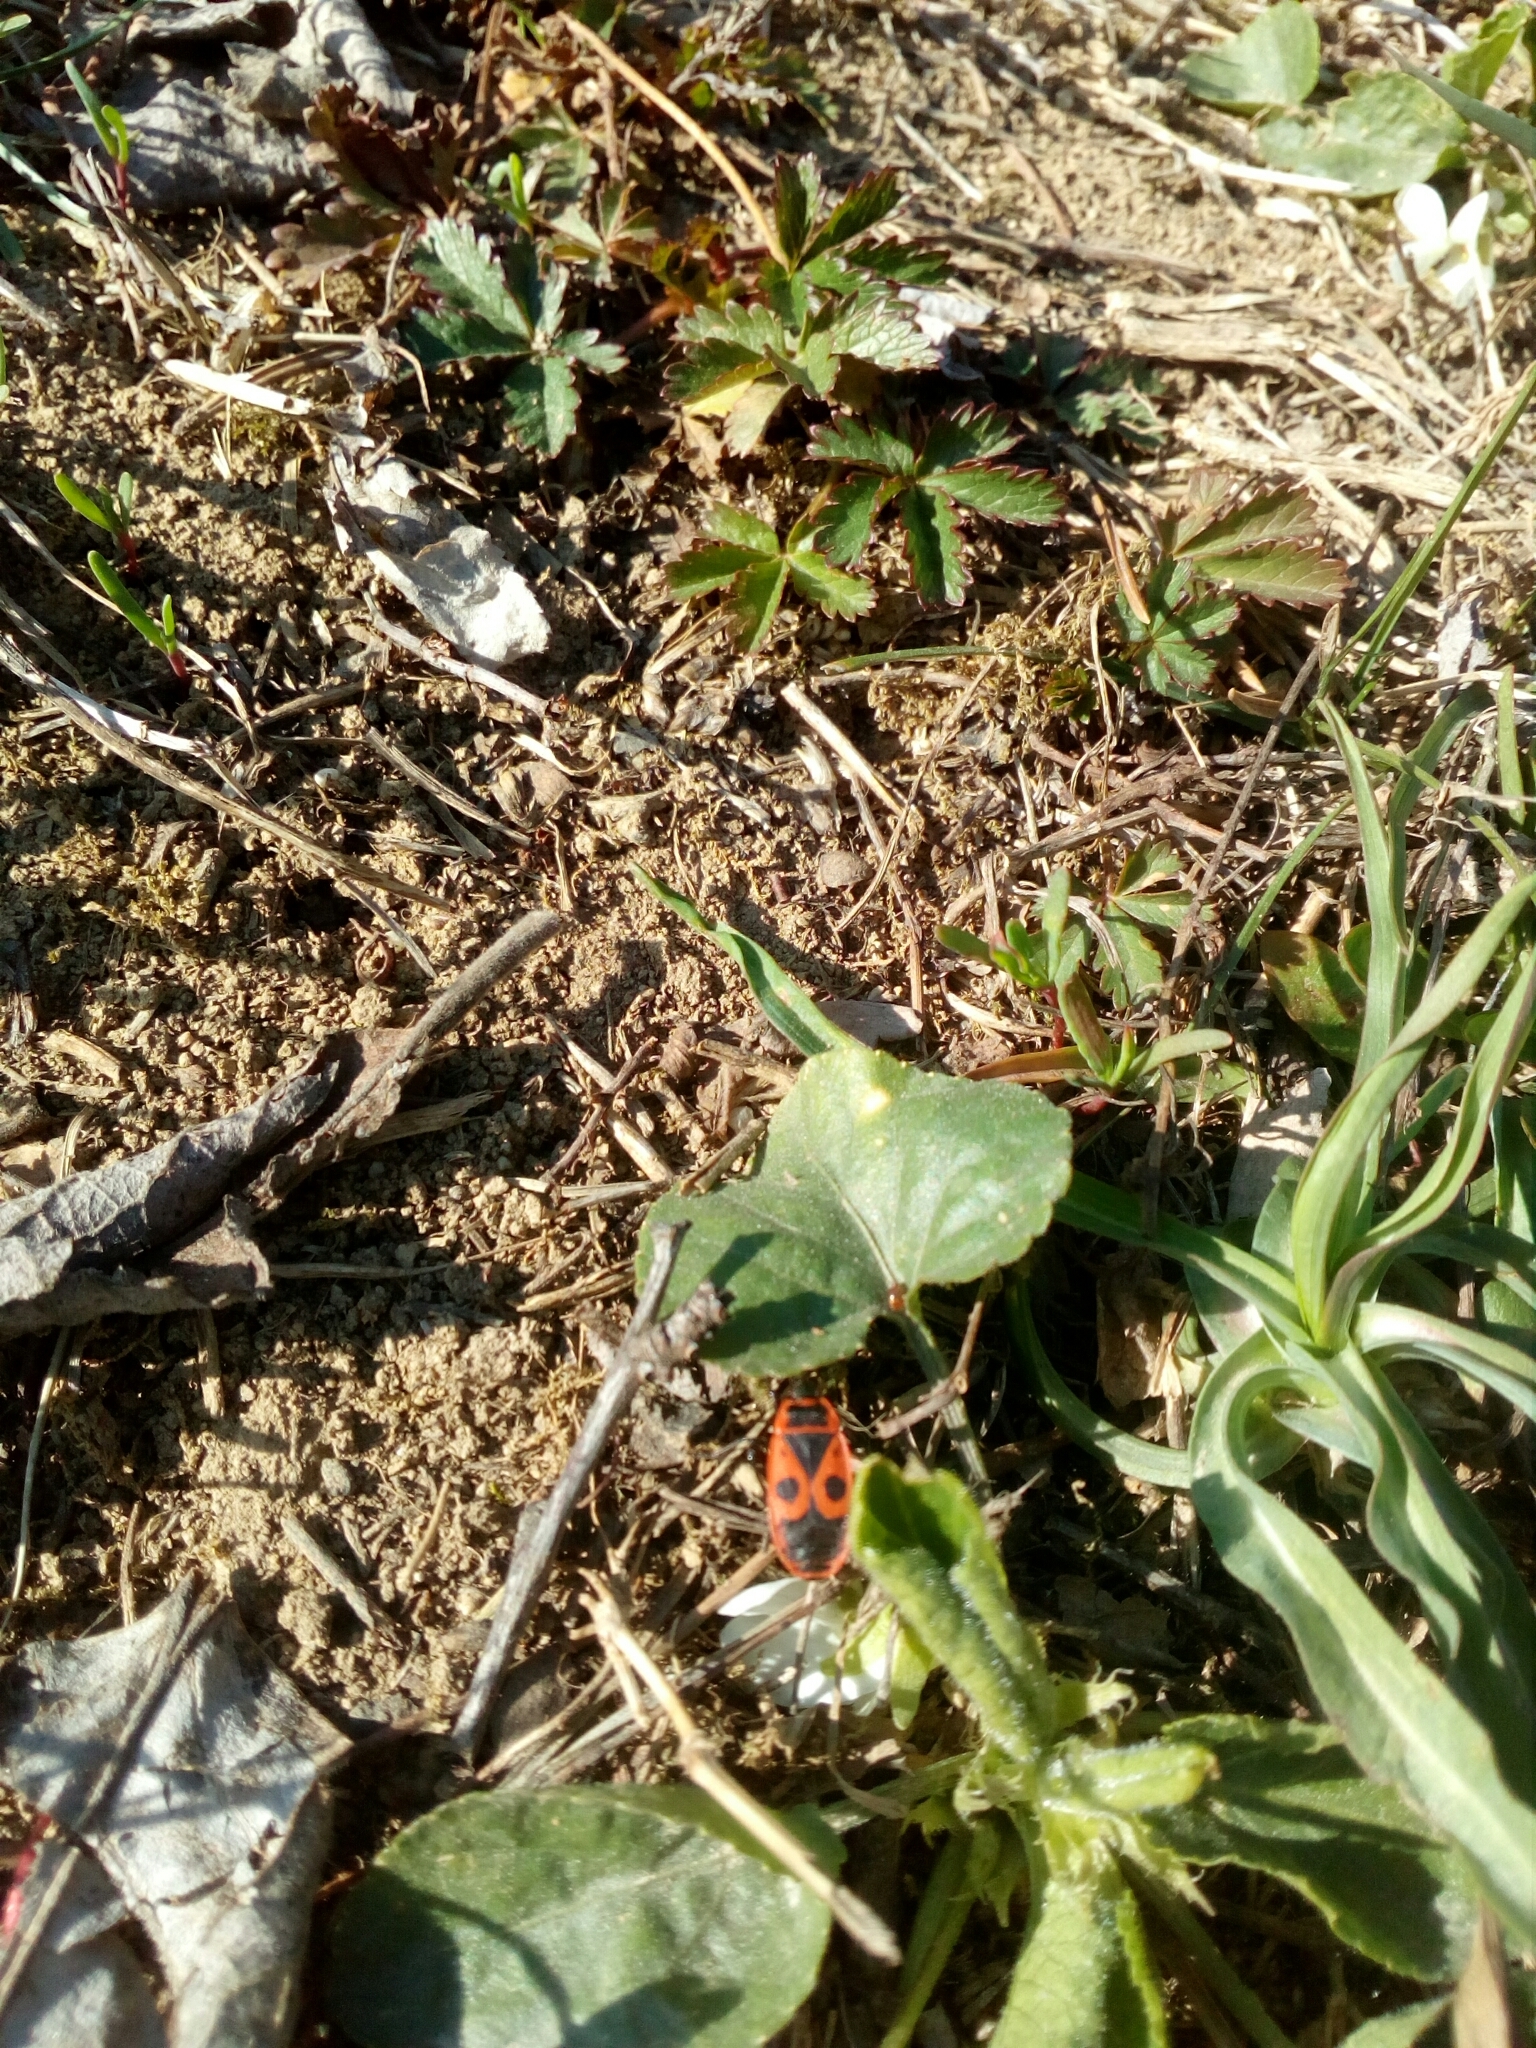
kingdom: Animalia
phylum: Arthropoda
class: Insecta
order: Hemiptera
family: Pyrrhocoridae
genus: Pyrrhocoris
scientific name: Pyrrhocoris apterus
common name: Firebug
